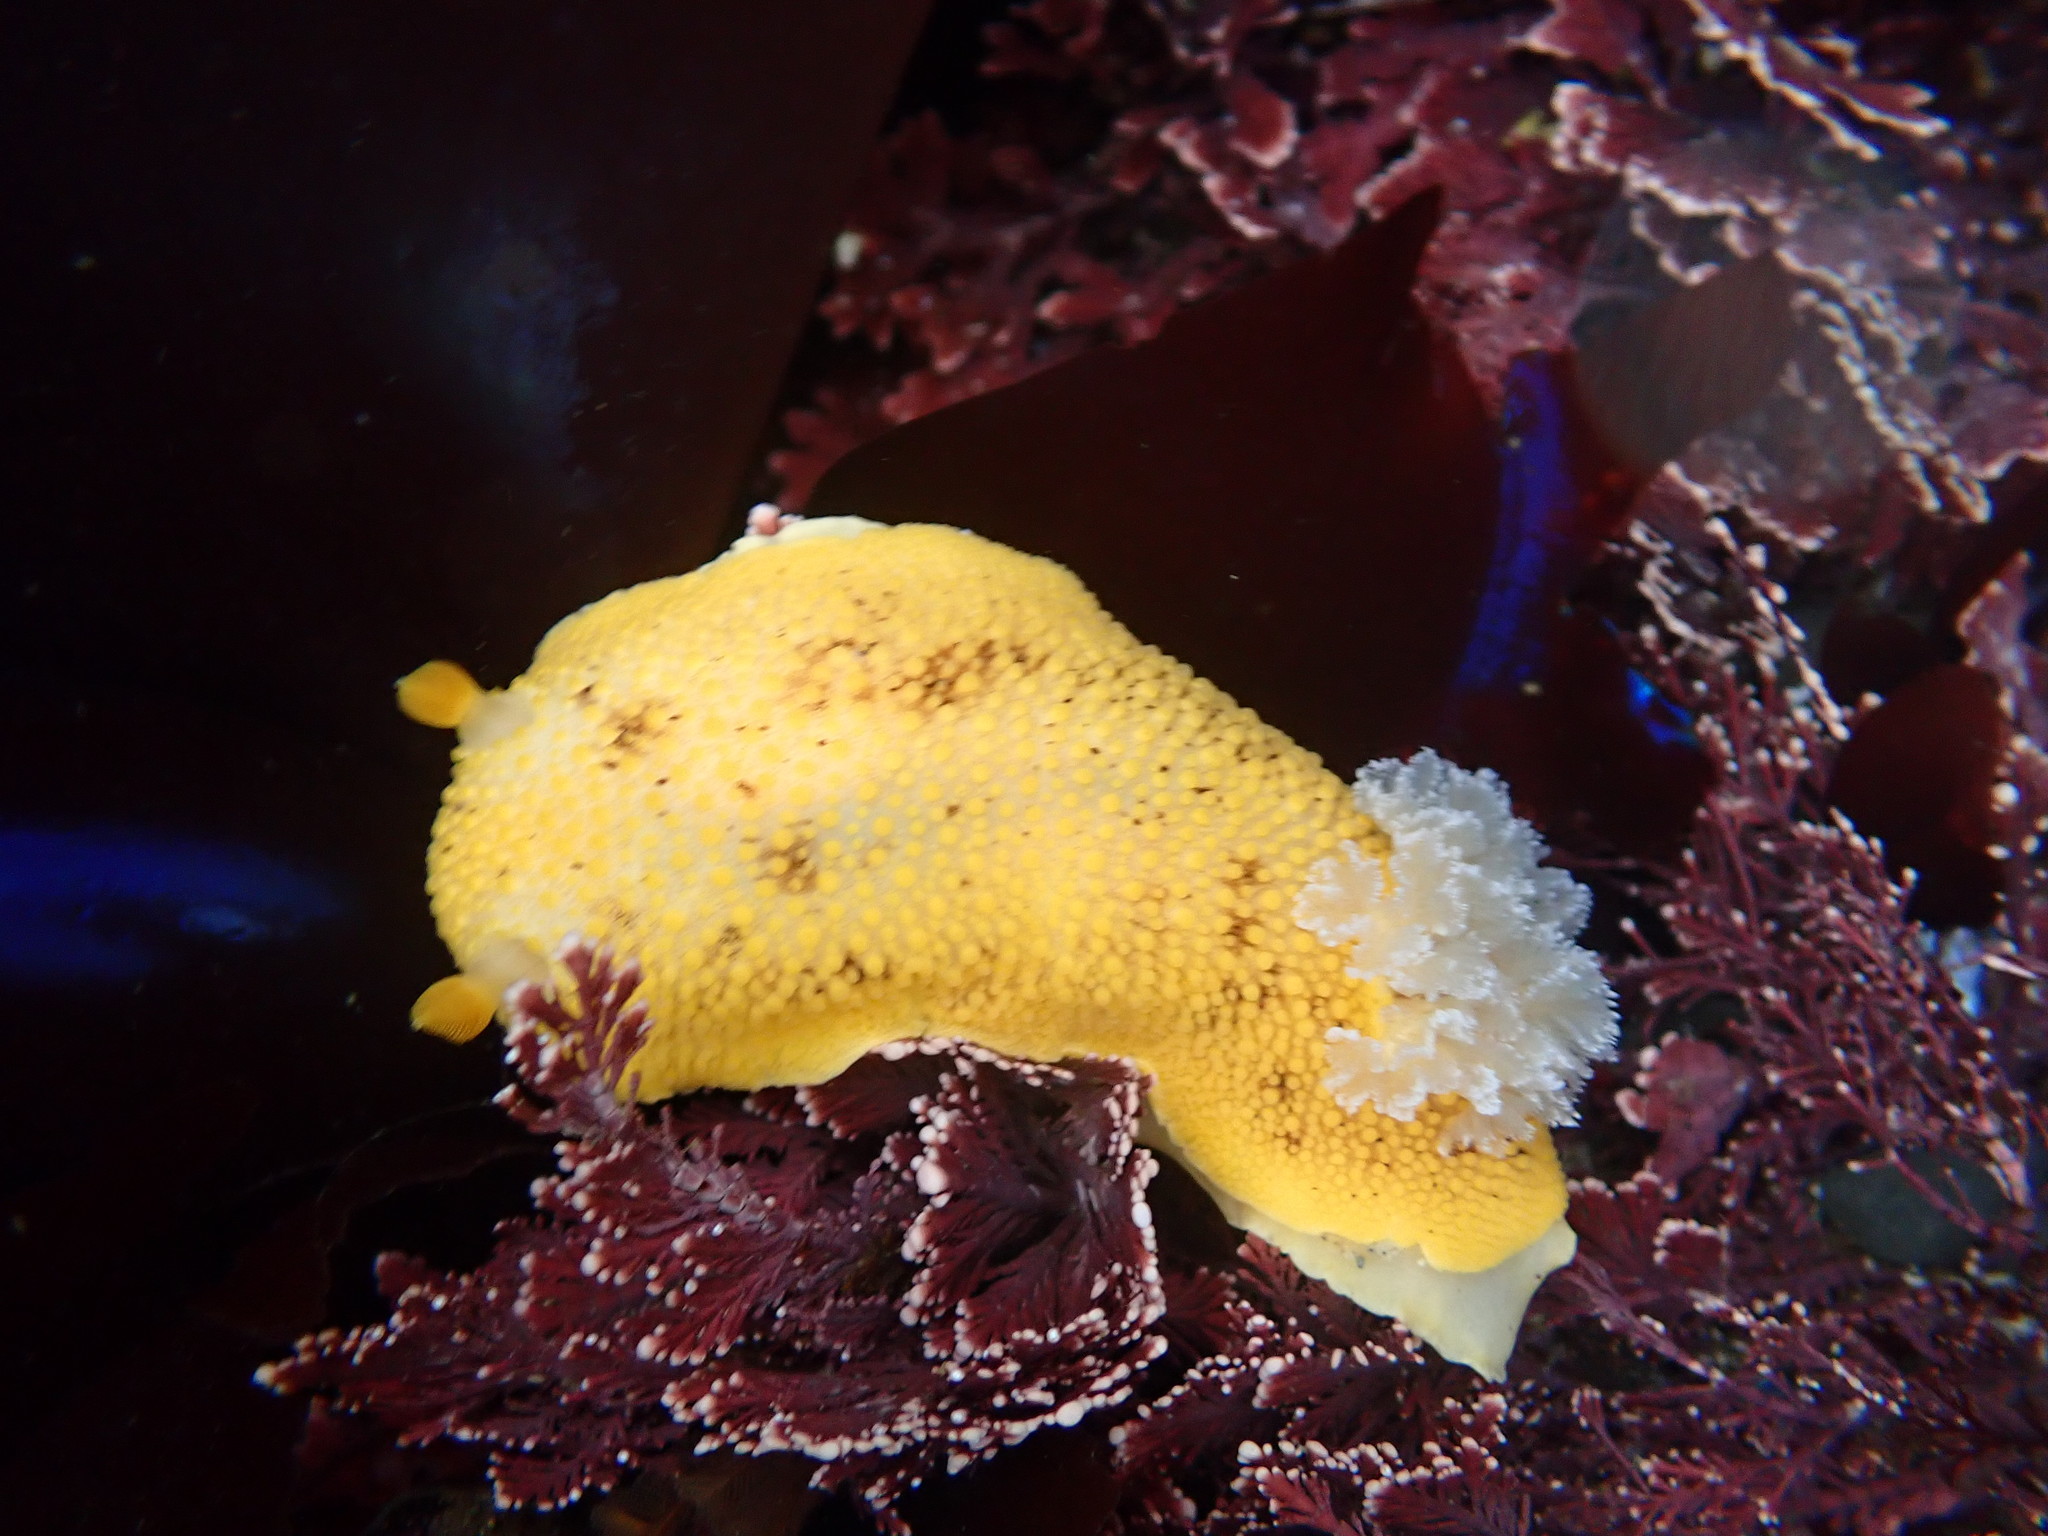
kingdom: Animalia
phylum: Mollusca
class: Gastropoda
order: Nudibranchia
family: Discodorididae
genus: Peltodoris
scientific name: Peltodoris nobilis
